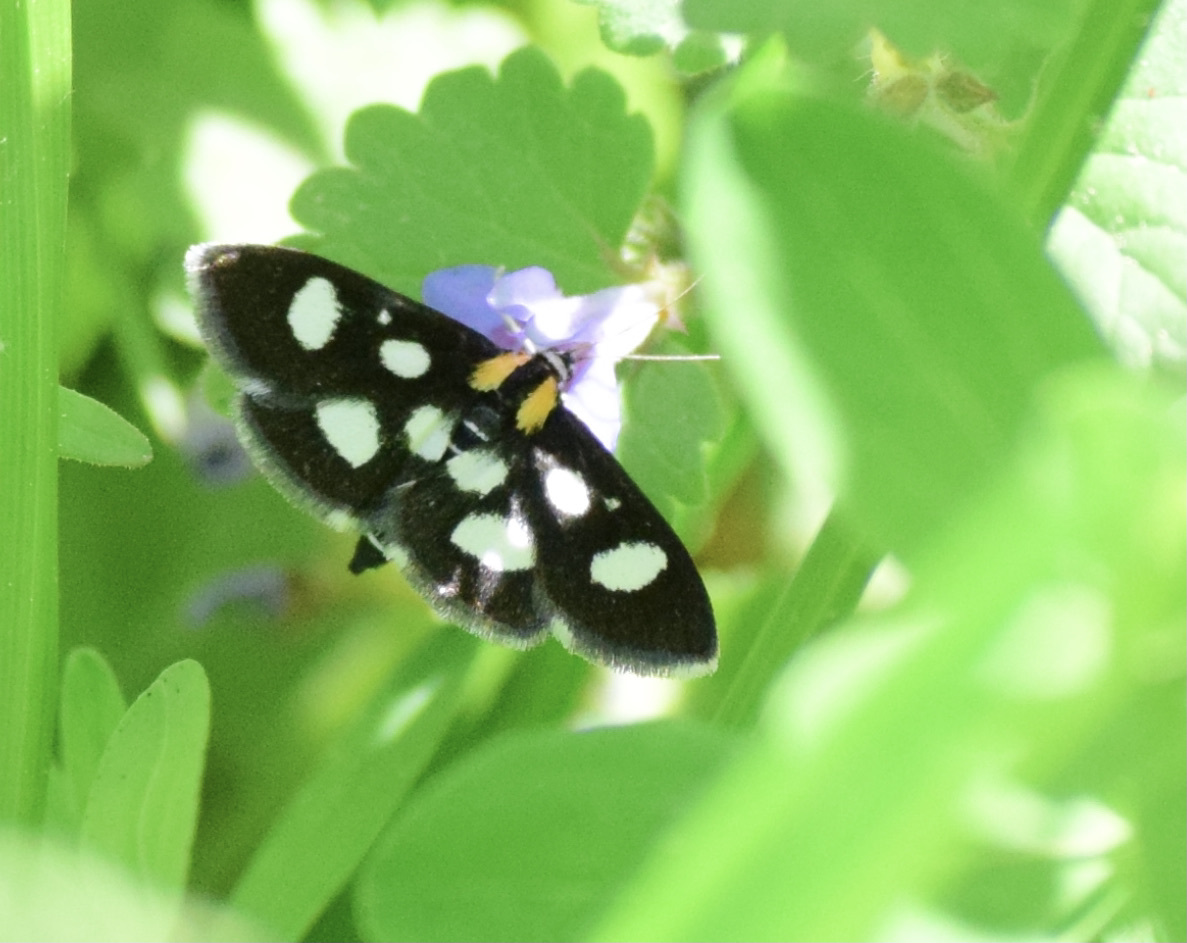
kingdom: Animalia
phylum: Arthropoda
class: Insecta
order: Lepidoptera
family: Crambidae
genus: Anania
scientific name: Anania funebris
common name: White-spotted sable moth
